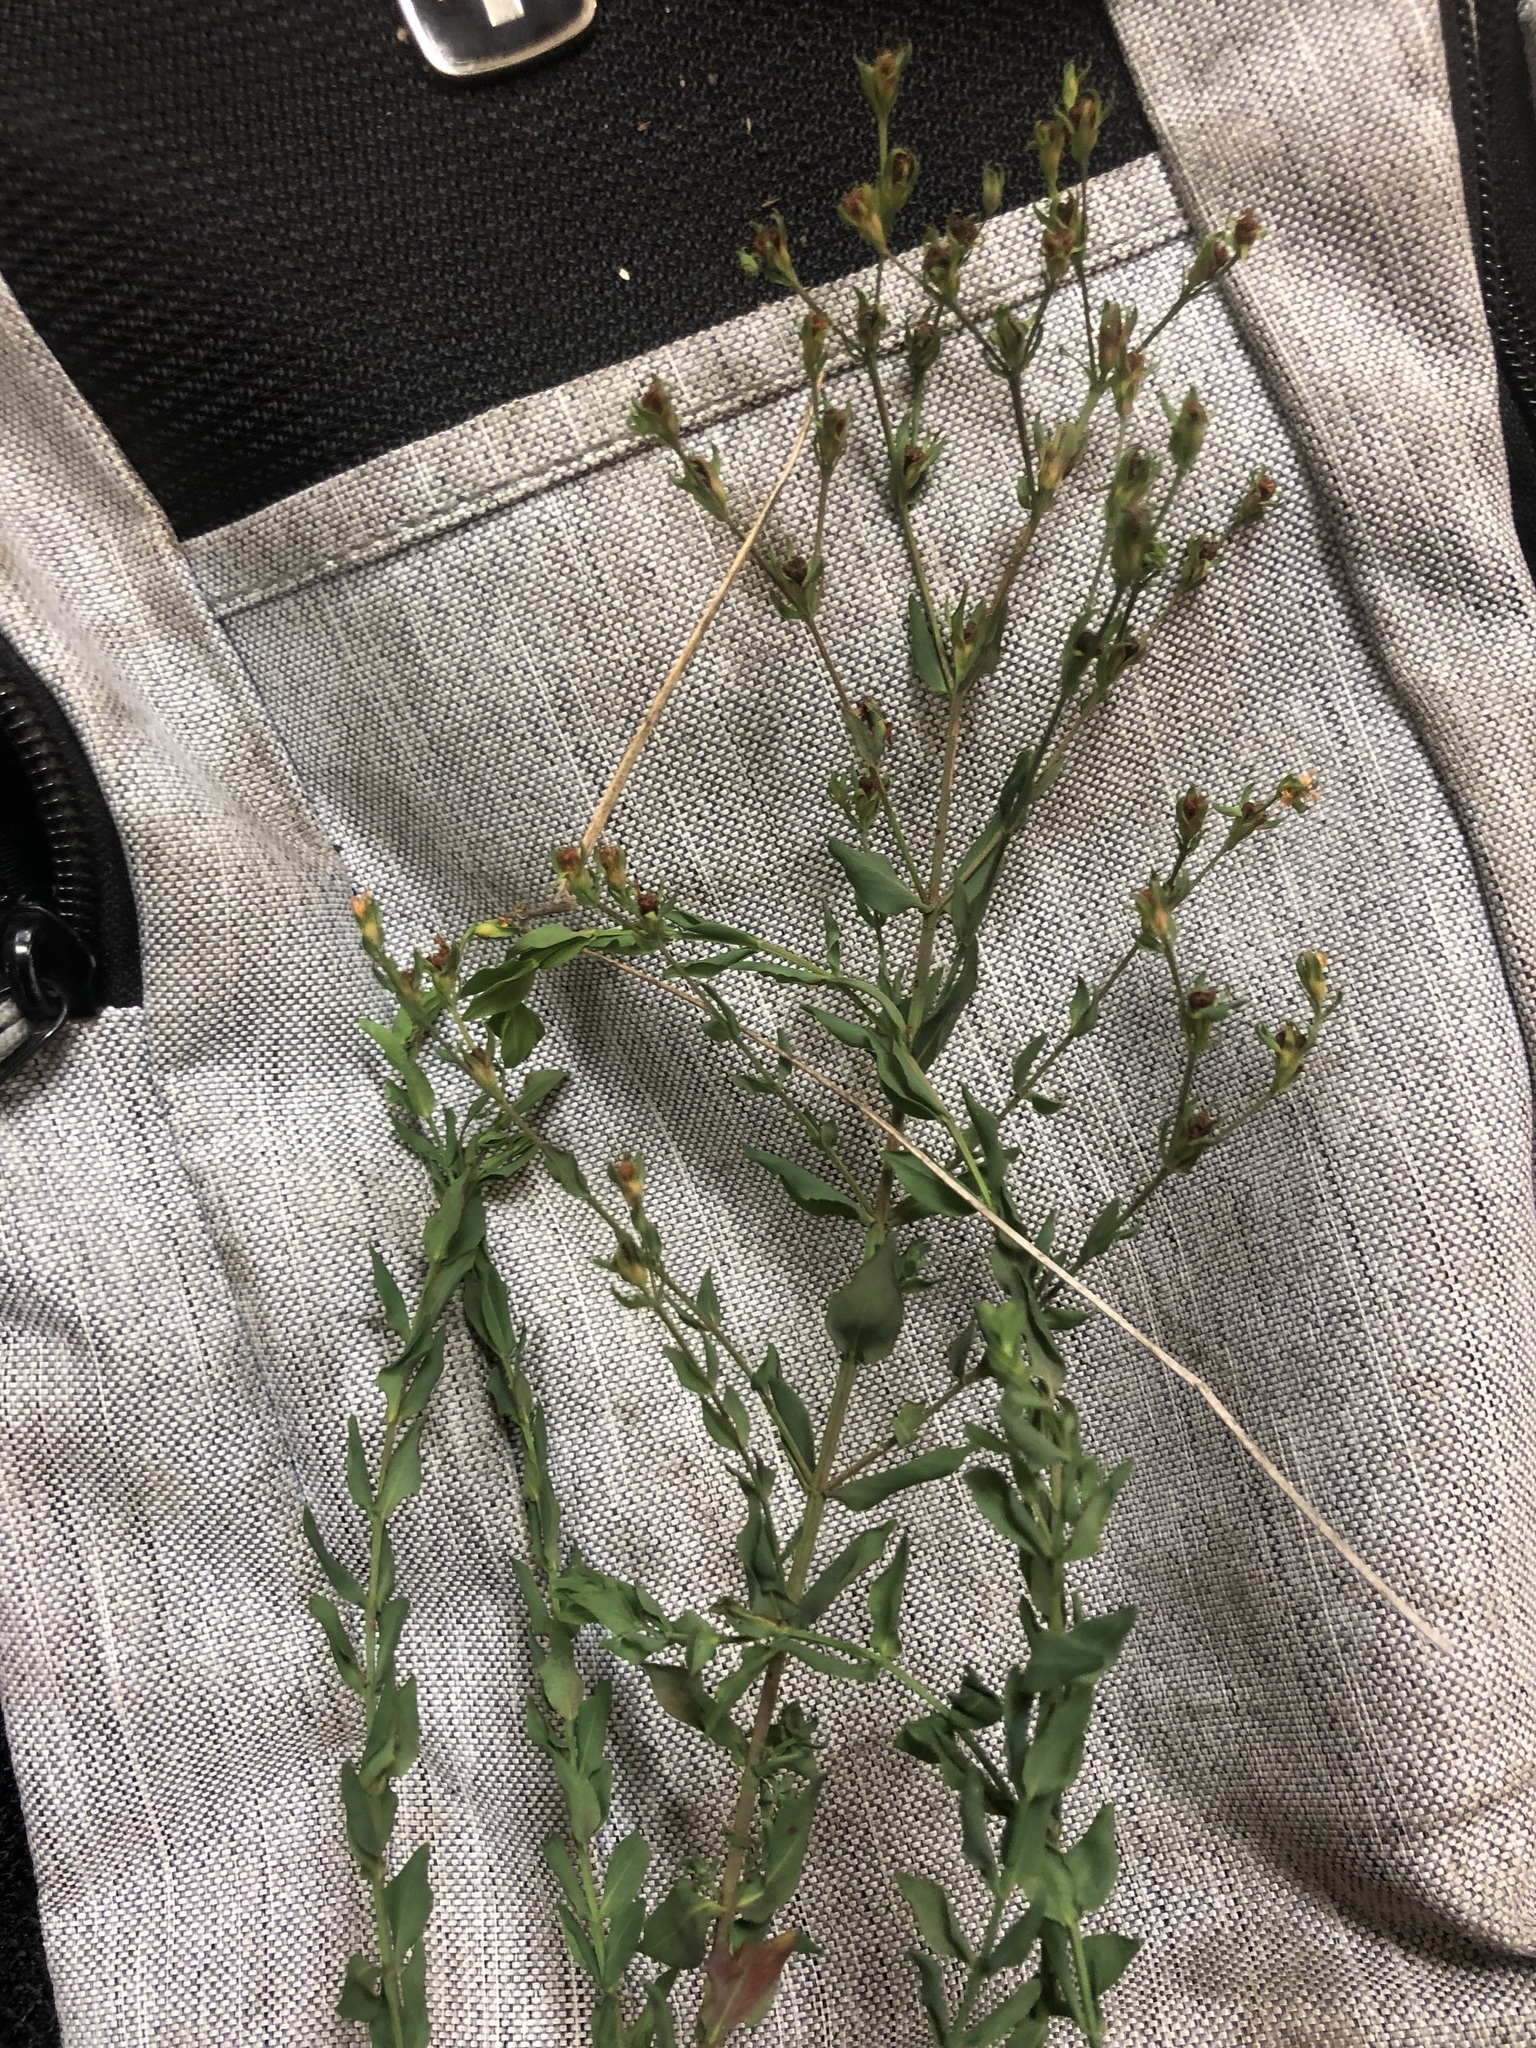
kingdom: Plantae
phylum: Tracheophyta
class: Magnoliopsida
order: Malpighiales
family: Hypericaceae
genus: Hypericum
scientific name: Hypericum denticulatum
